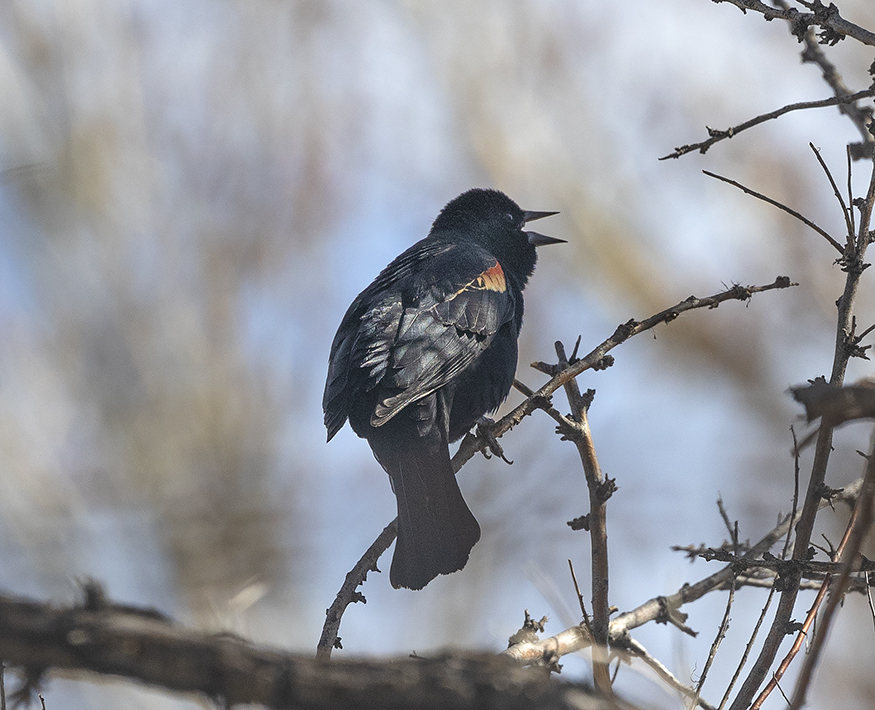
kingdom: Animalia
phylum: Chordata
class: Aves
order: Passeriformes
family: Icteridae
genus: Agelaius
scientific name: Agelaius phoeniceus
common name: Red-winged blackbird
